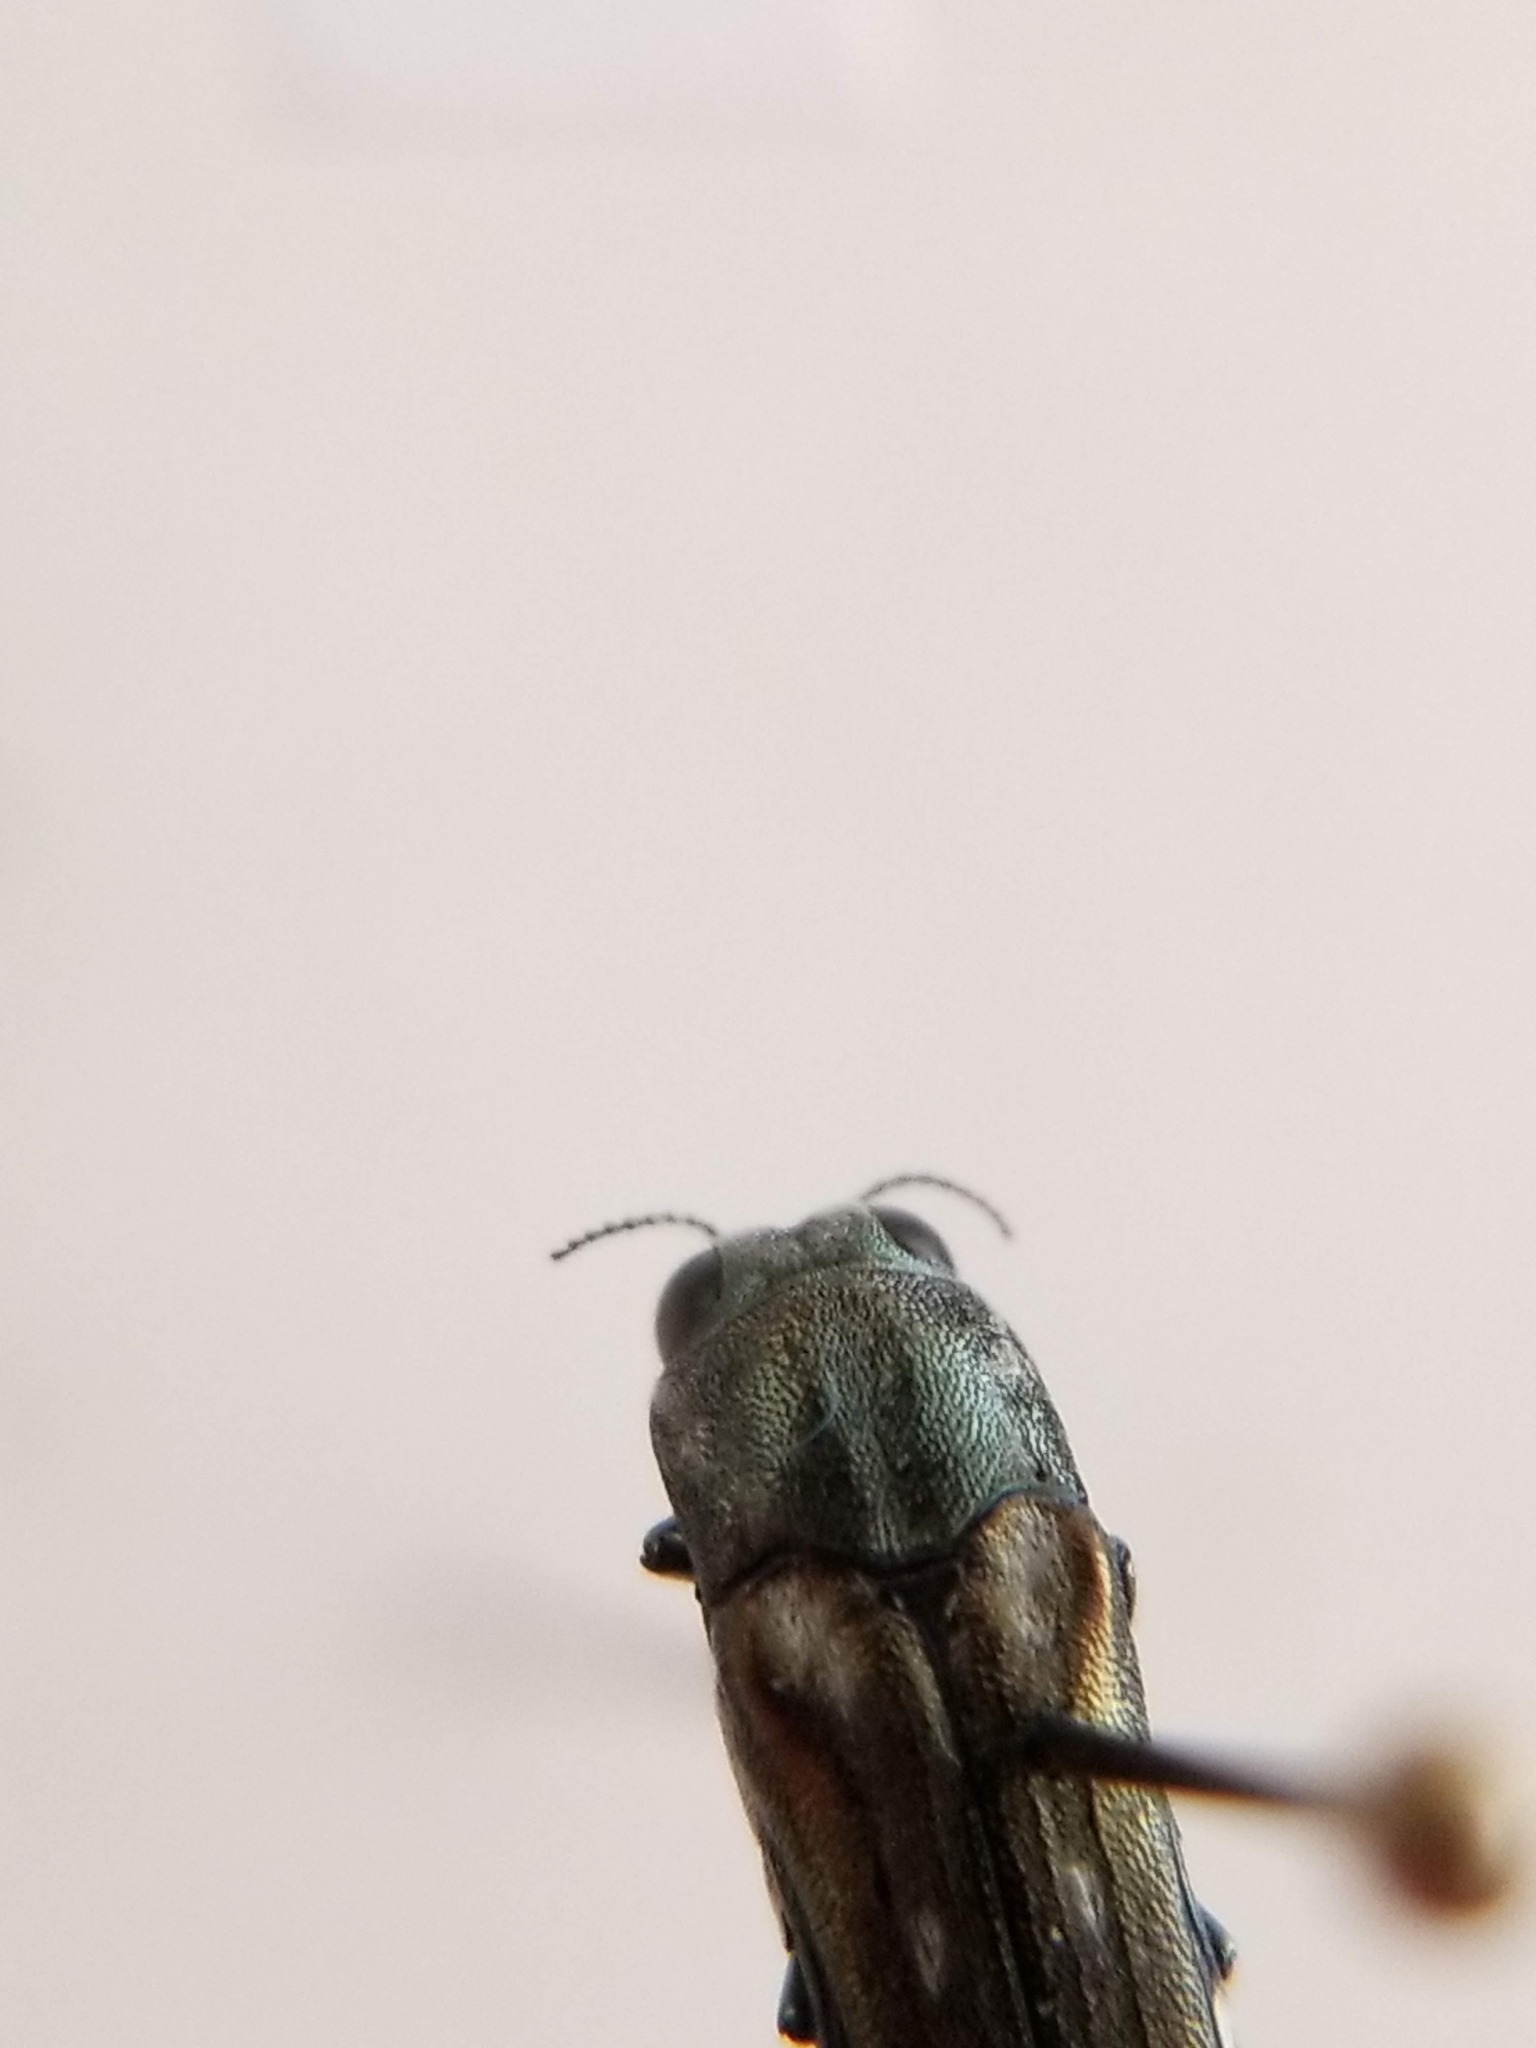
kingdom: Animalia
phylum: Arthropoda
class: Insecta
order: Coleoptera
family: Buprestidae
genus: Agrilus
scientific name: Agrilus walsinghami
